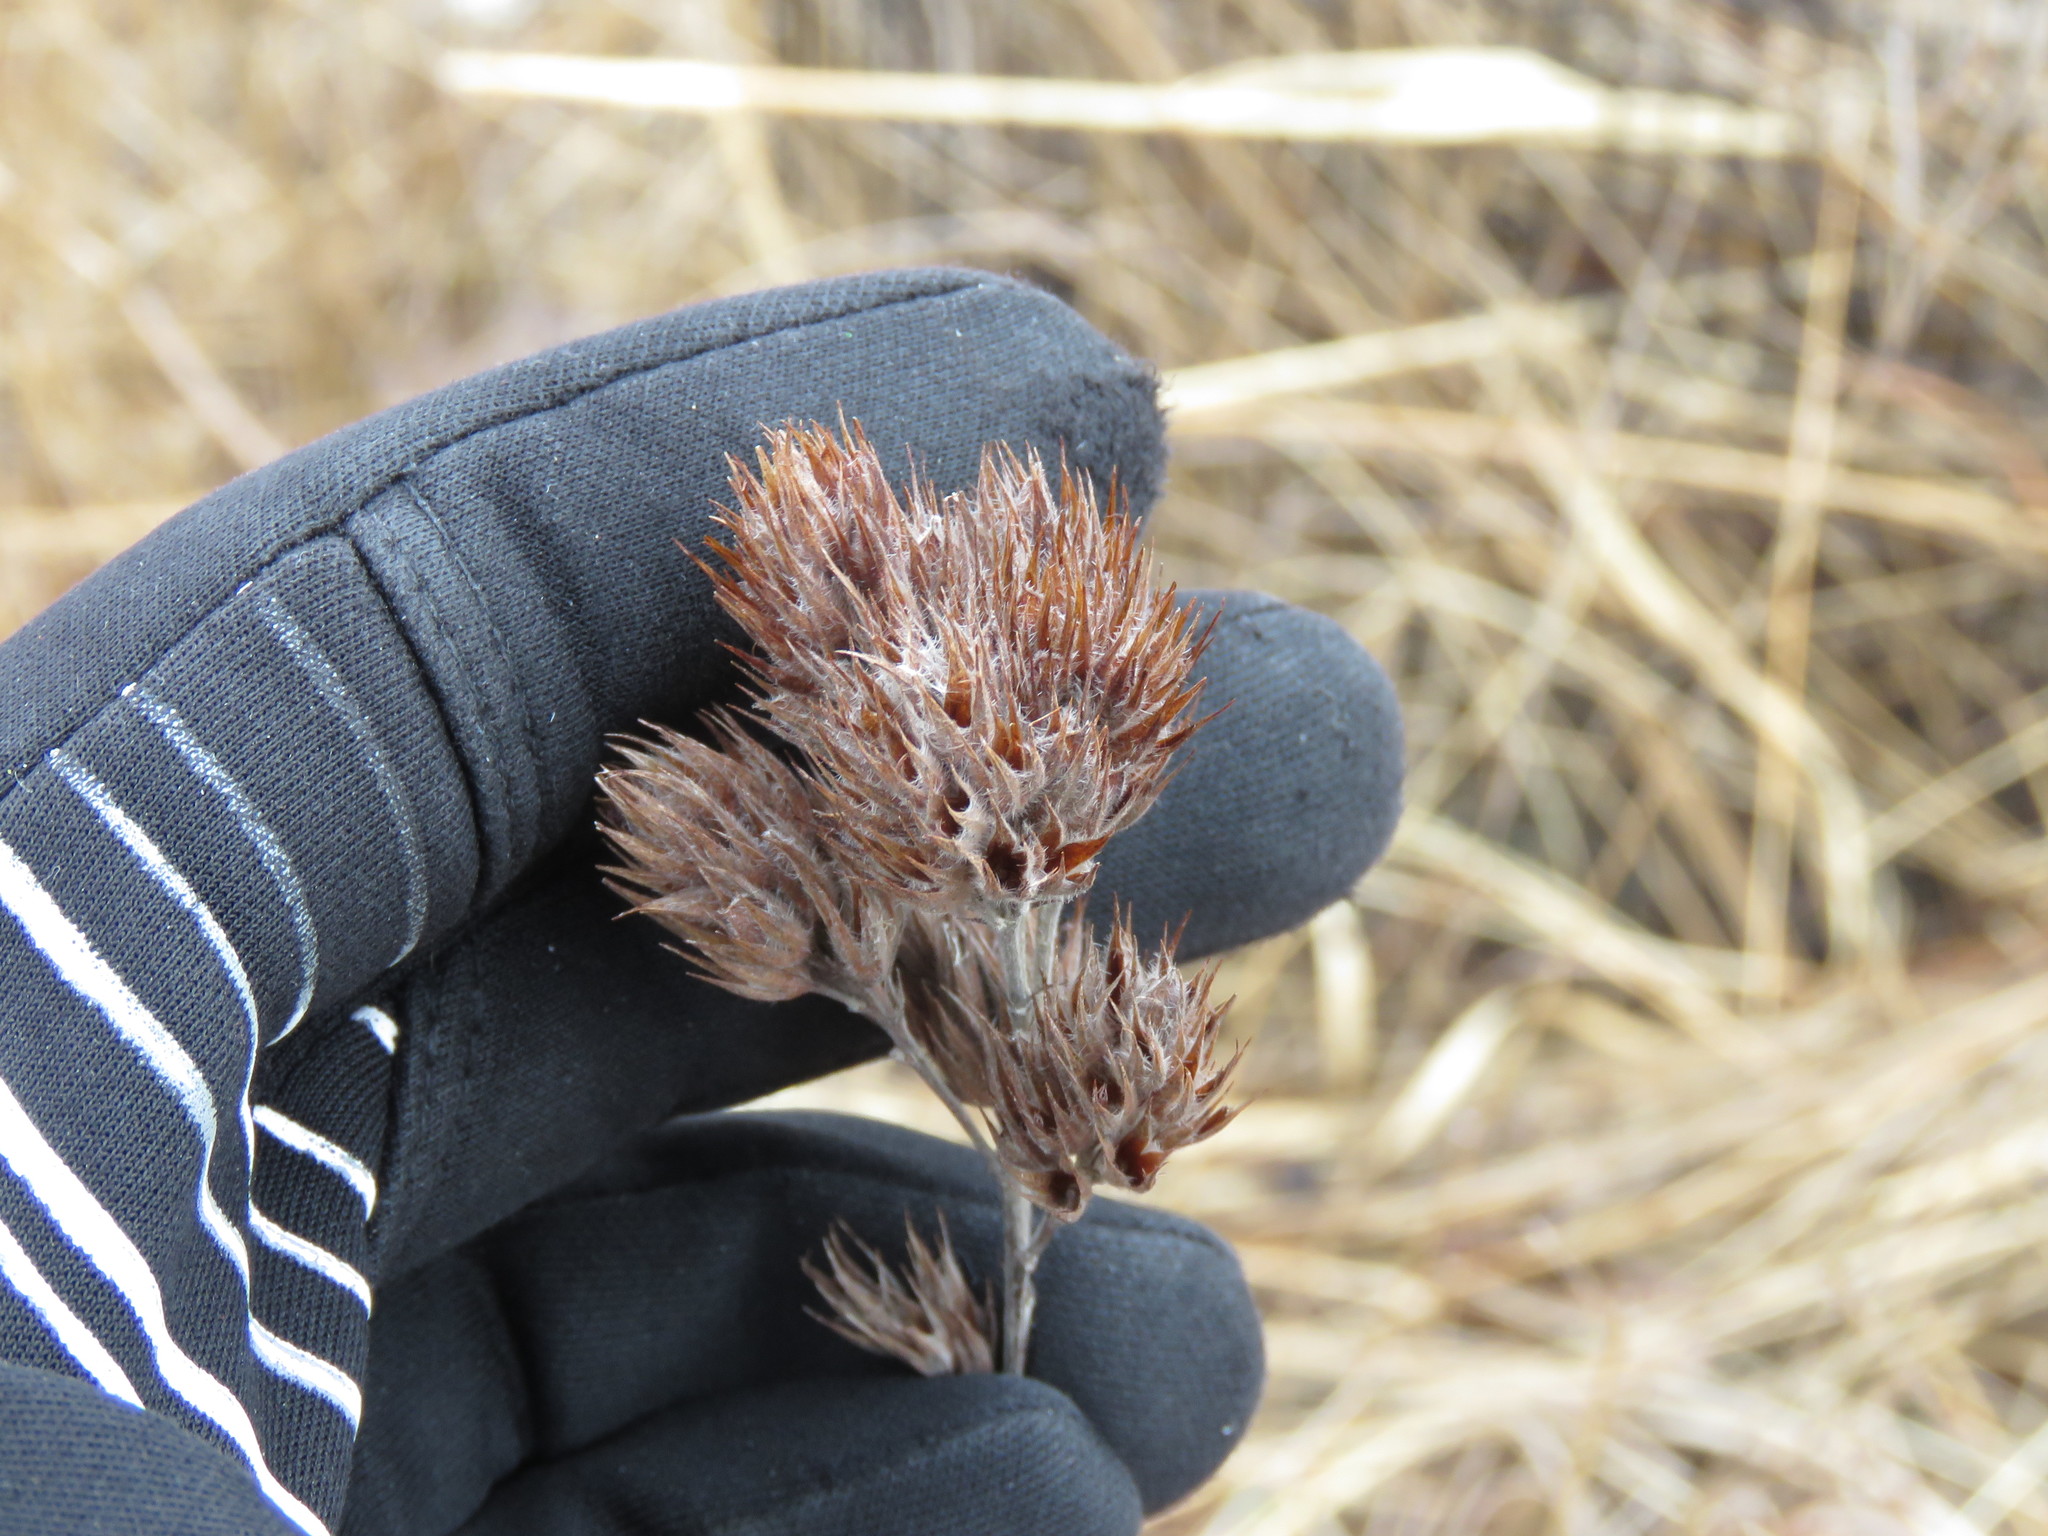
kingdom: Plantae
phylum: Tracheophyta
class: Magnoliopsida
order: Fabales
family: Fabaceae
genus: Lespedeza
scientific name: Lespedeza capitata
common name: Dusty clover
